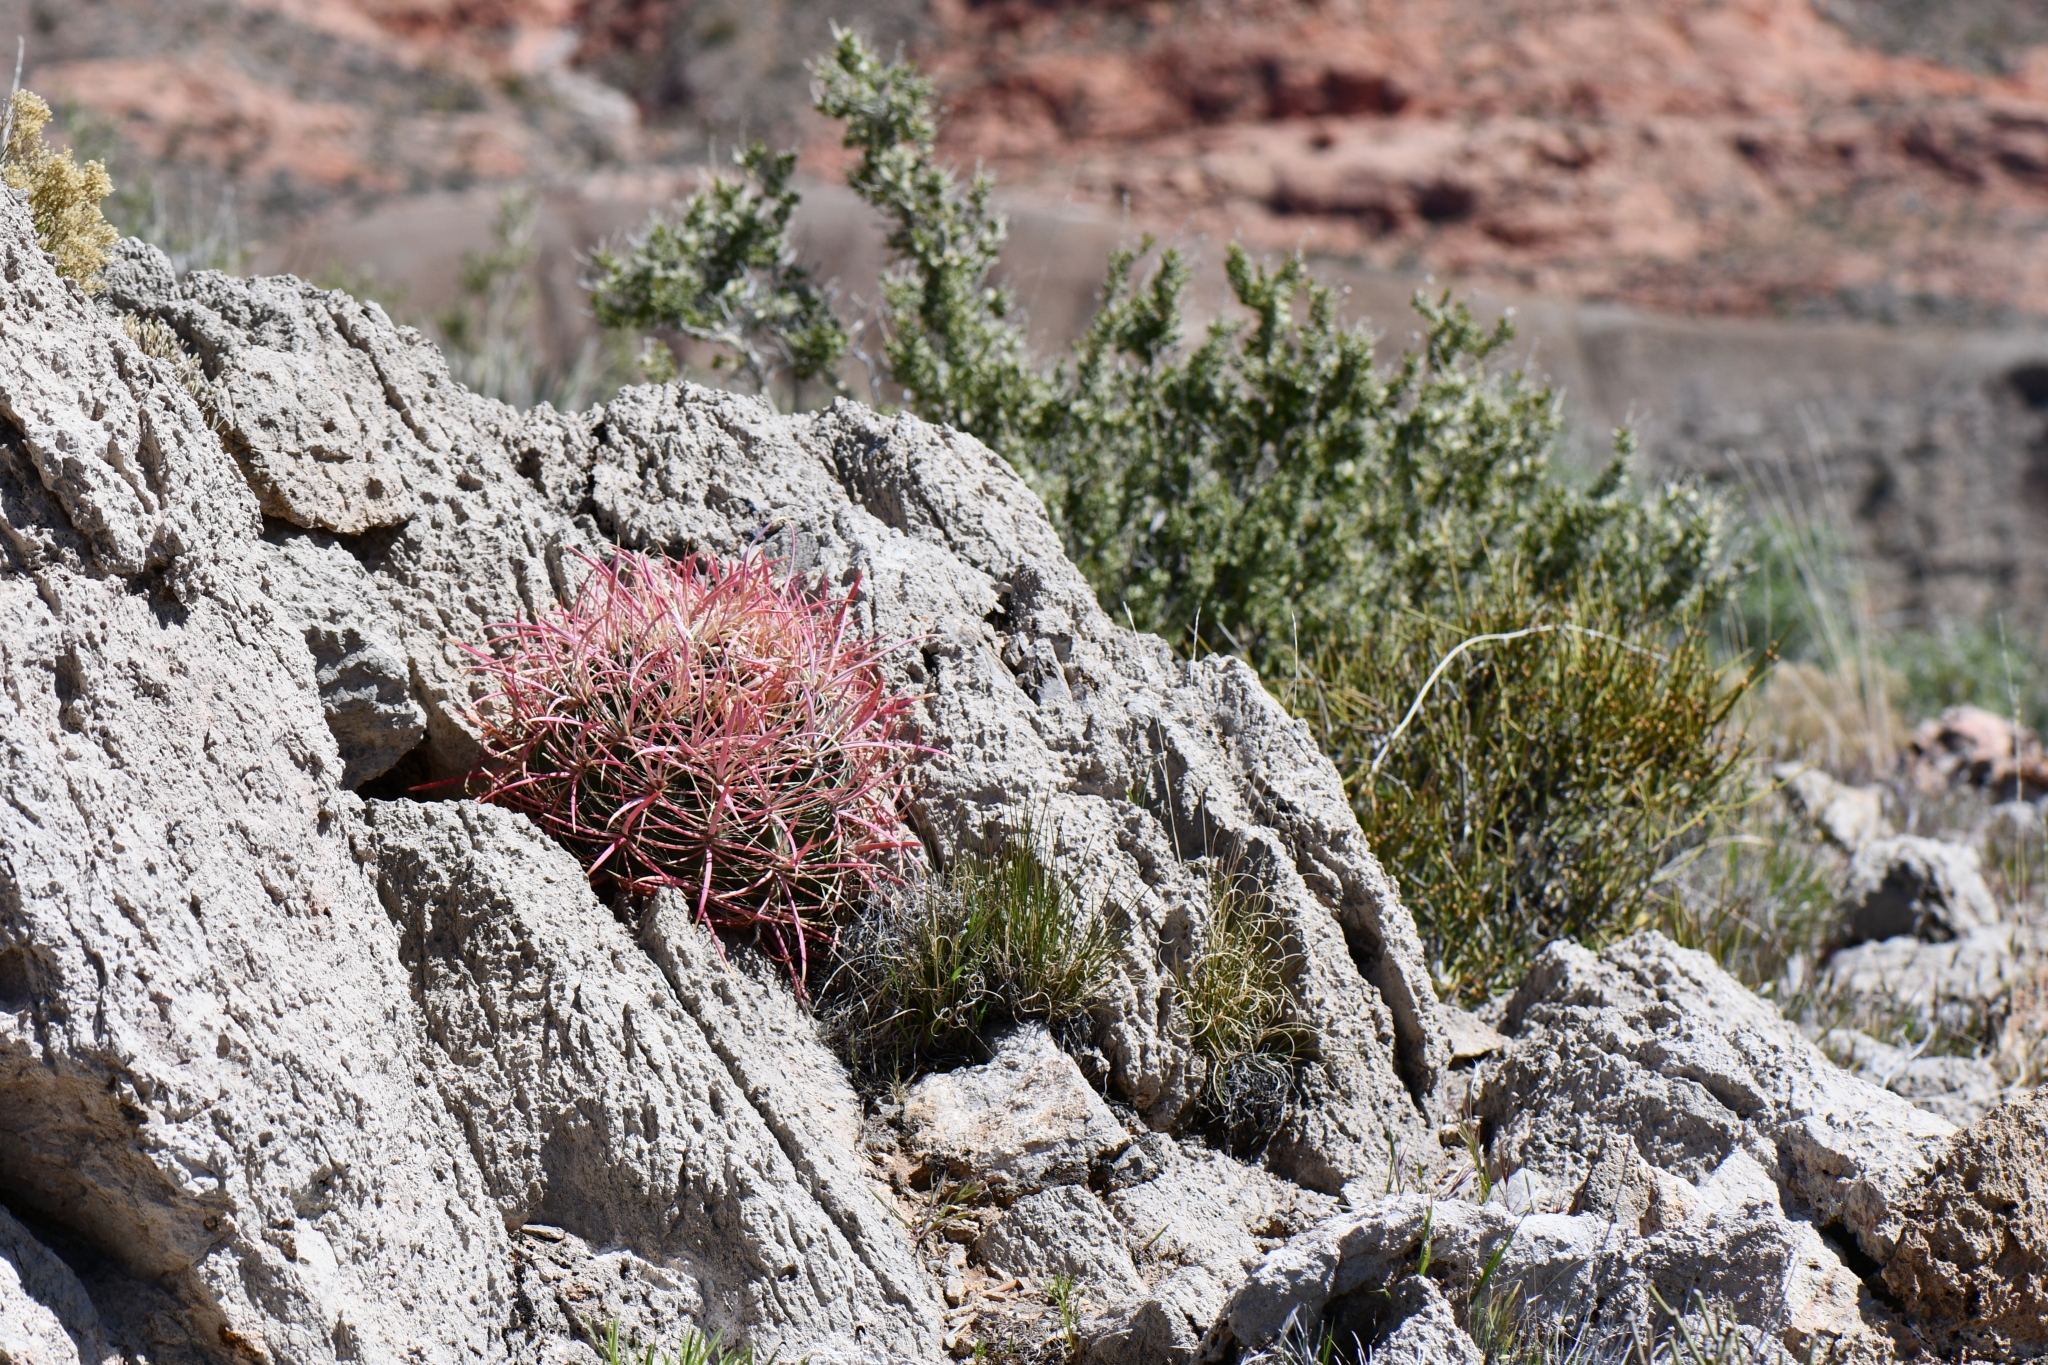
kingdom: Plantae
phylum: Tracheophyta
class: Magnoliopsida
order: Caryophyllales
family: Cactaceae
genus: Ferocactus
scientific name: Ferocactus cylindraceus
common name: California barrel cactus
